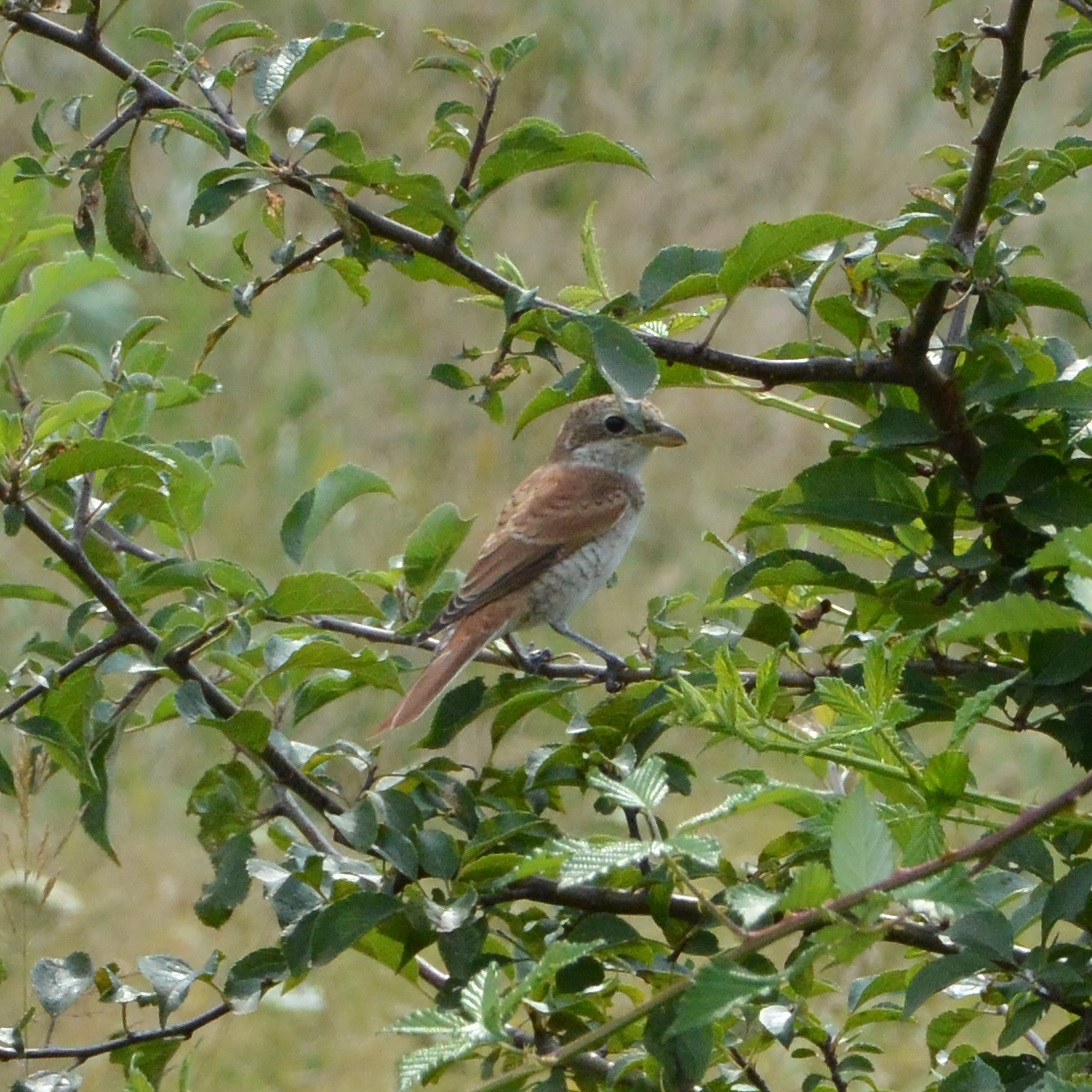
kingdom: Animalia
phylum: Chordata
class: Aves
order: Passeriformes
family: Laniidae
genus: Lanius
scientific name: Lanius collurio
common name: Red-backed shrike
